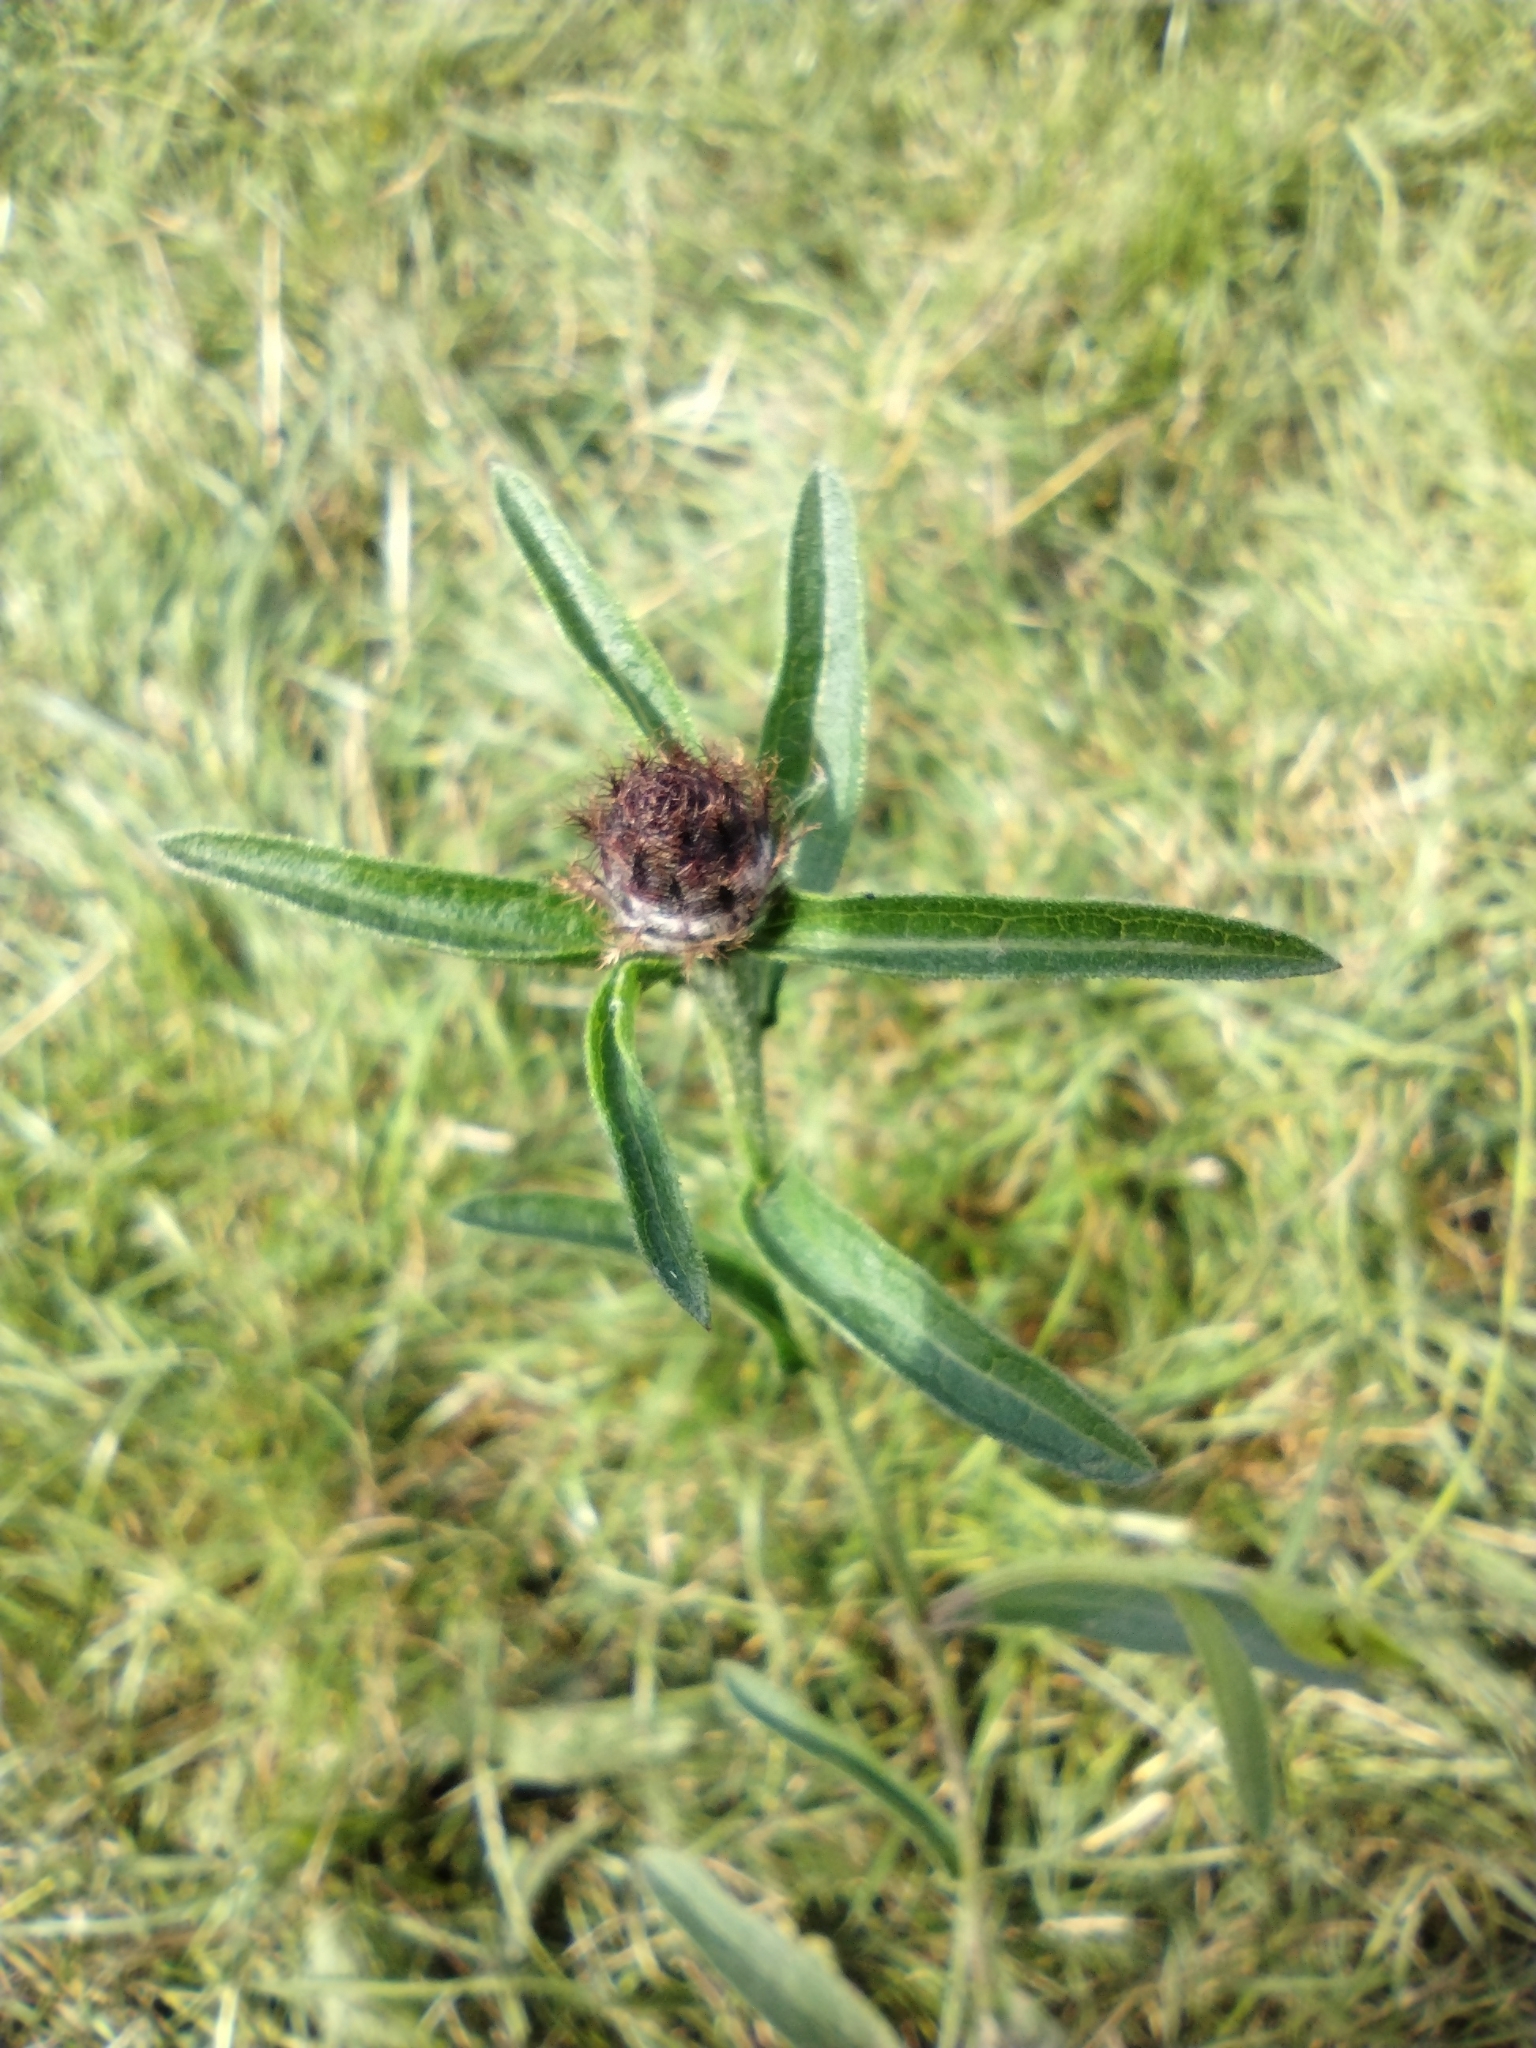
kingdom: Plantae
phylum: Tracheophyta
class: Magnoliopsida
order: Asterales
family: Asteraceae
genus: Centaurea
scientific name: Centaurea nigra
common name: Lesser knapweed
